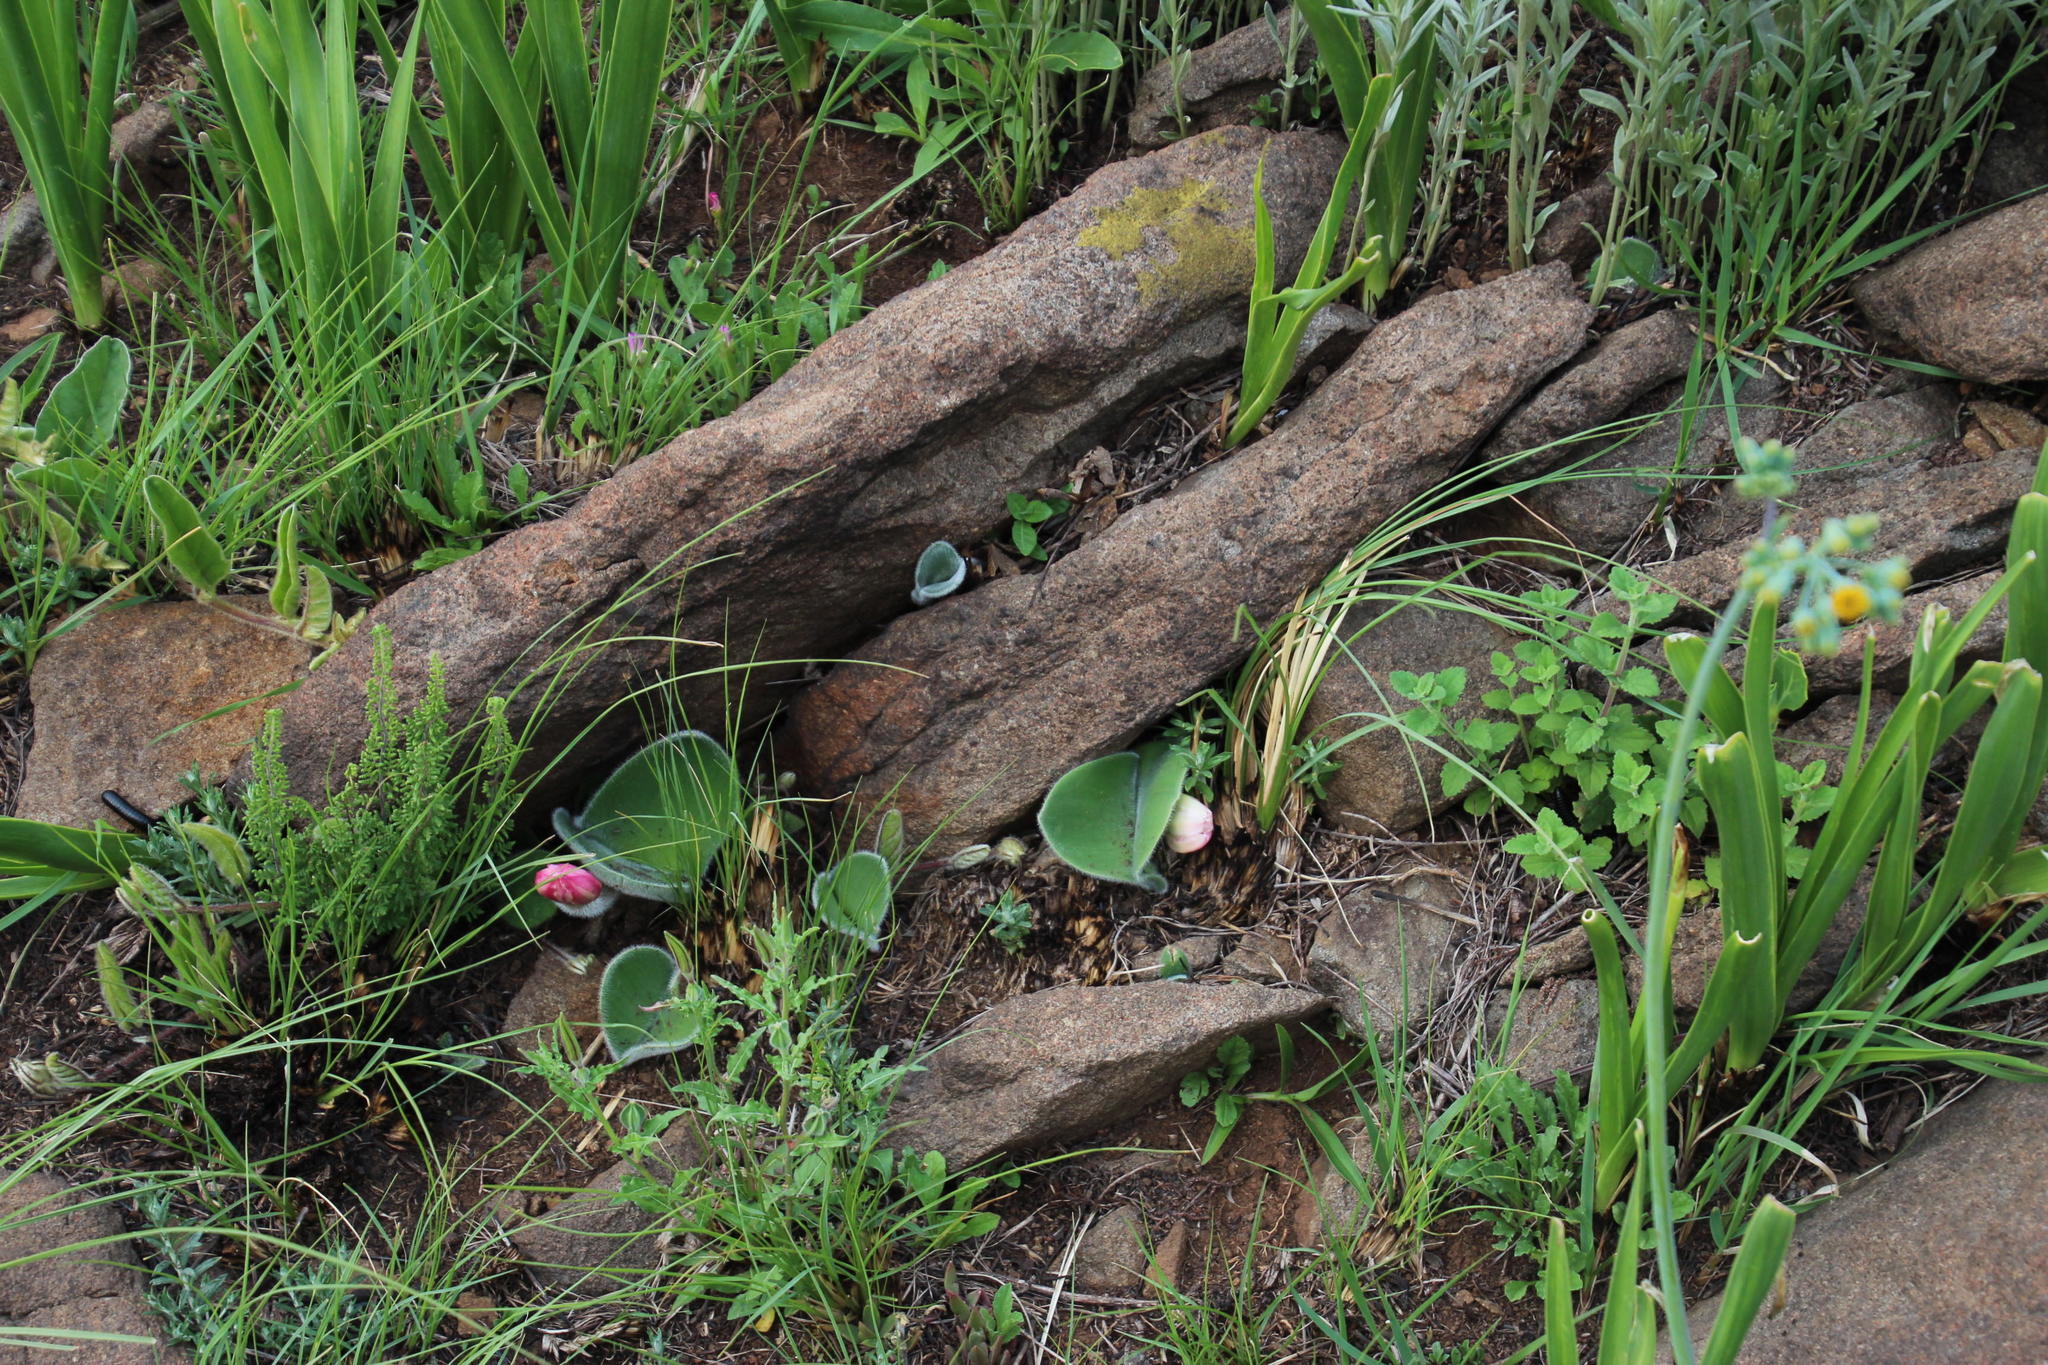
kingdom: Plantae
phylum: Tracheophyta
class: Liliopsida
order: Asparagales
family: Amaryllidaceae
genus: Haemanthus
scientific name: Haemanthus humilis
